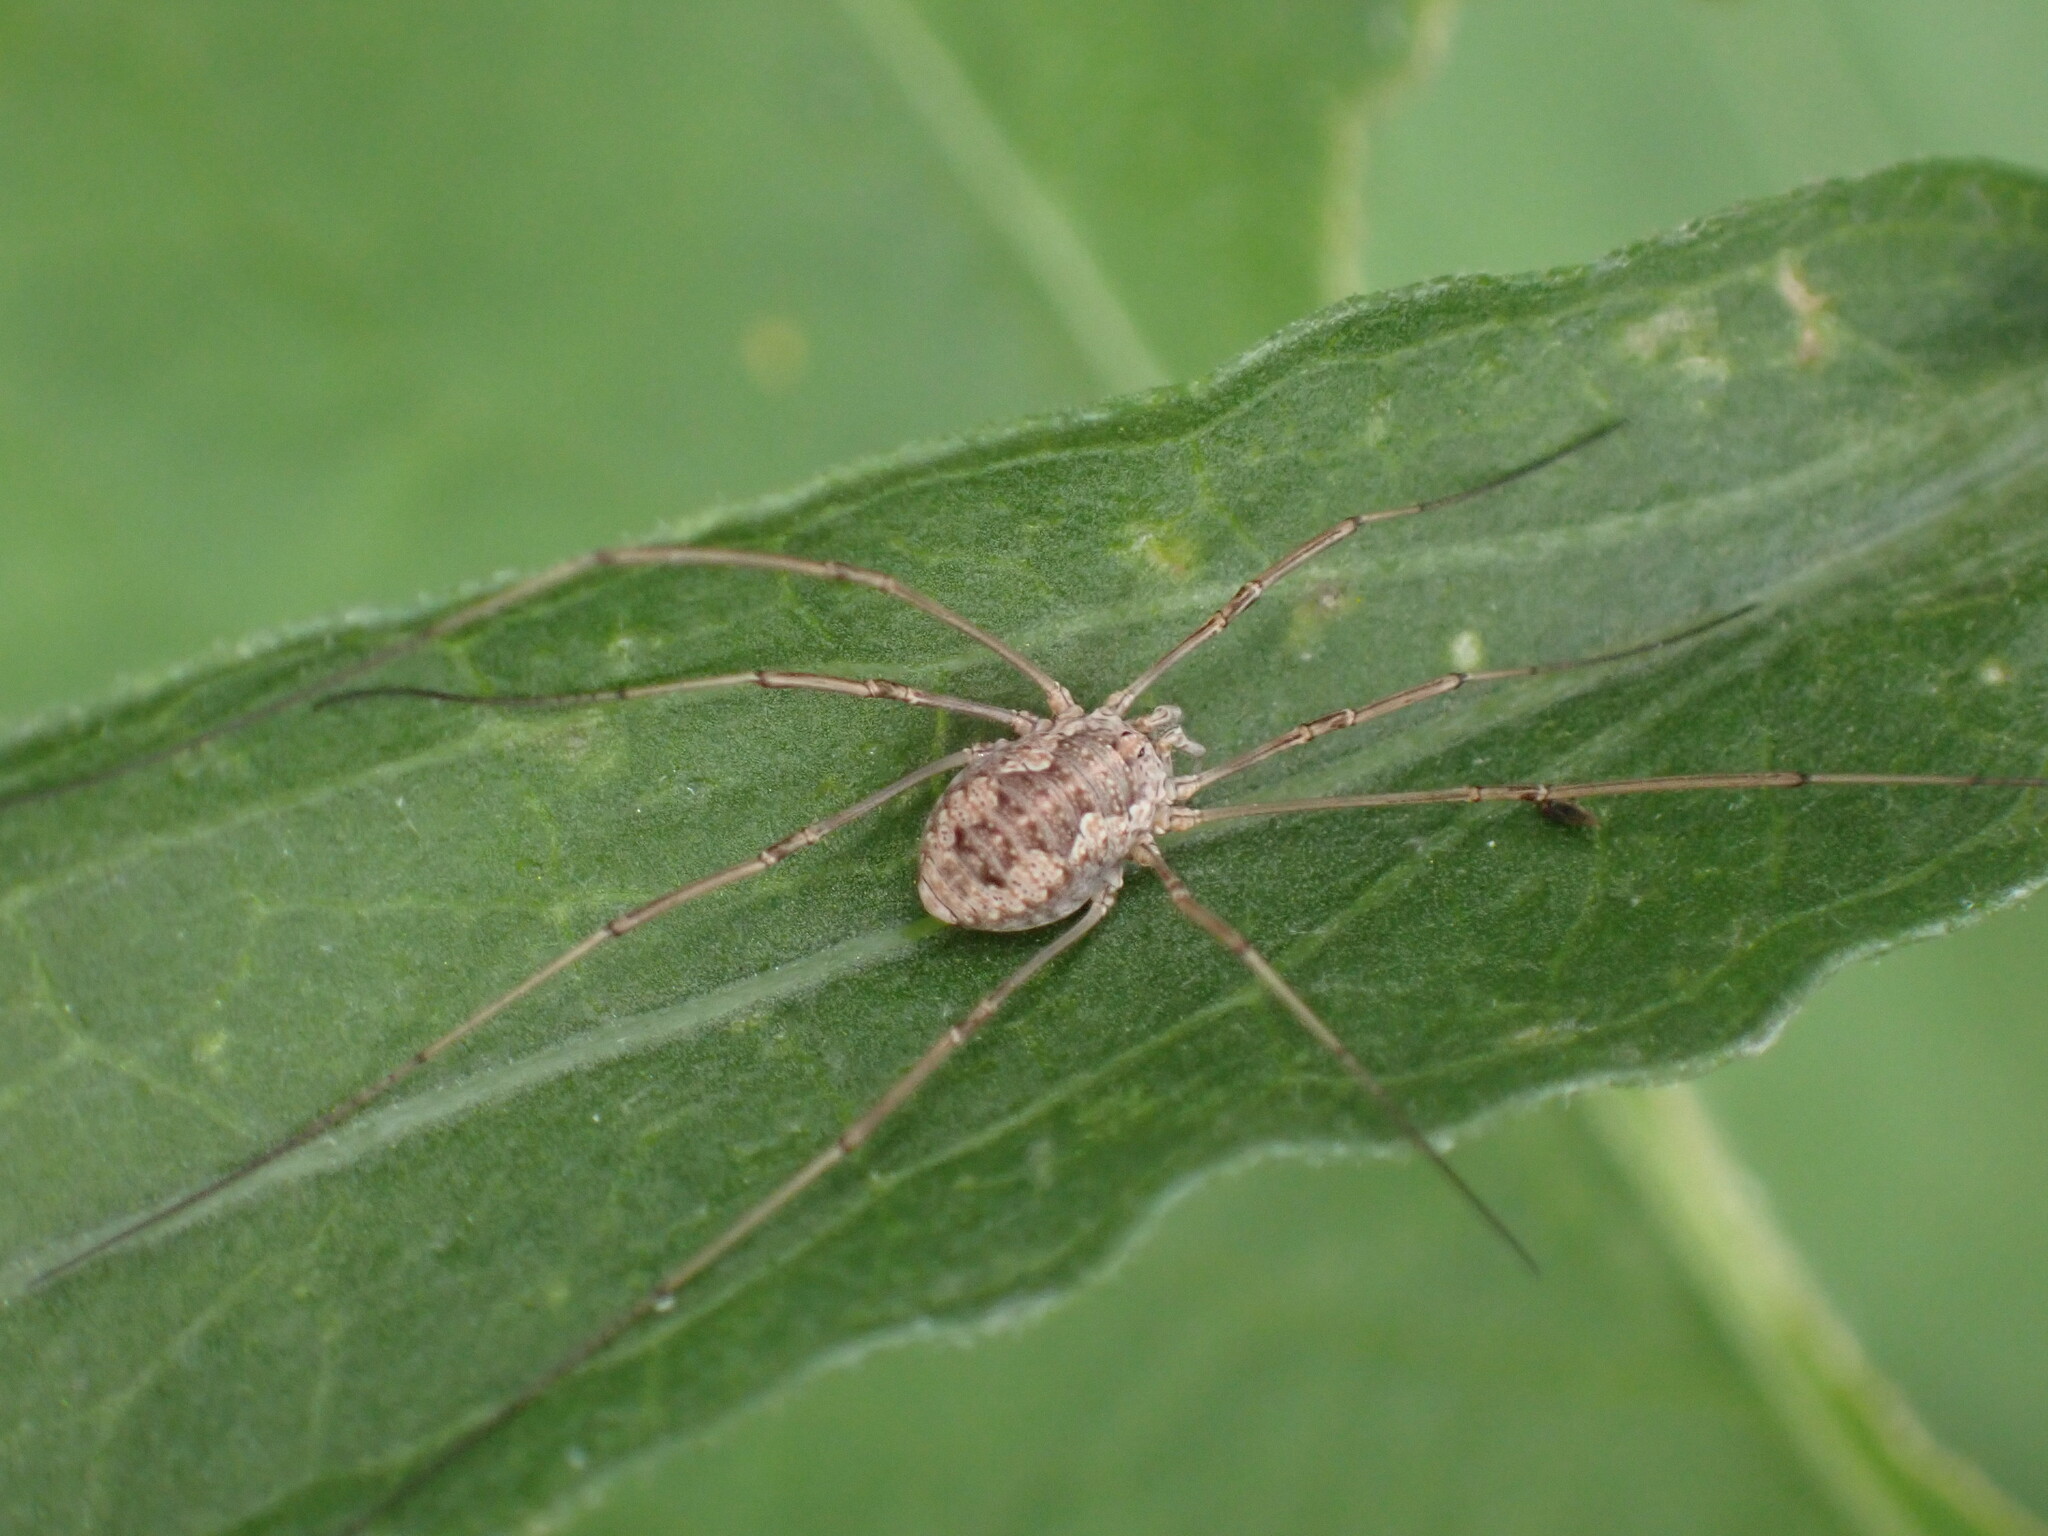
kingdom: Animalia
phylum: Arthropoda
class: Arachnida
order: Opiliones
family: Phalangiidae
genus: Phalangium
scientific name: Phalangium opilio
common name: Daddy longleg
